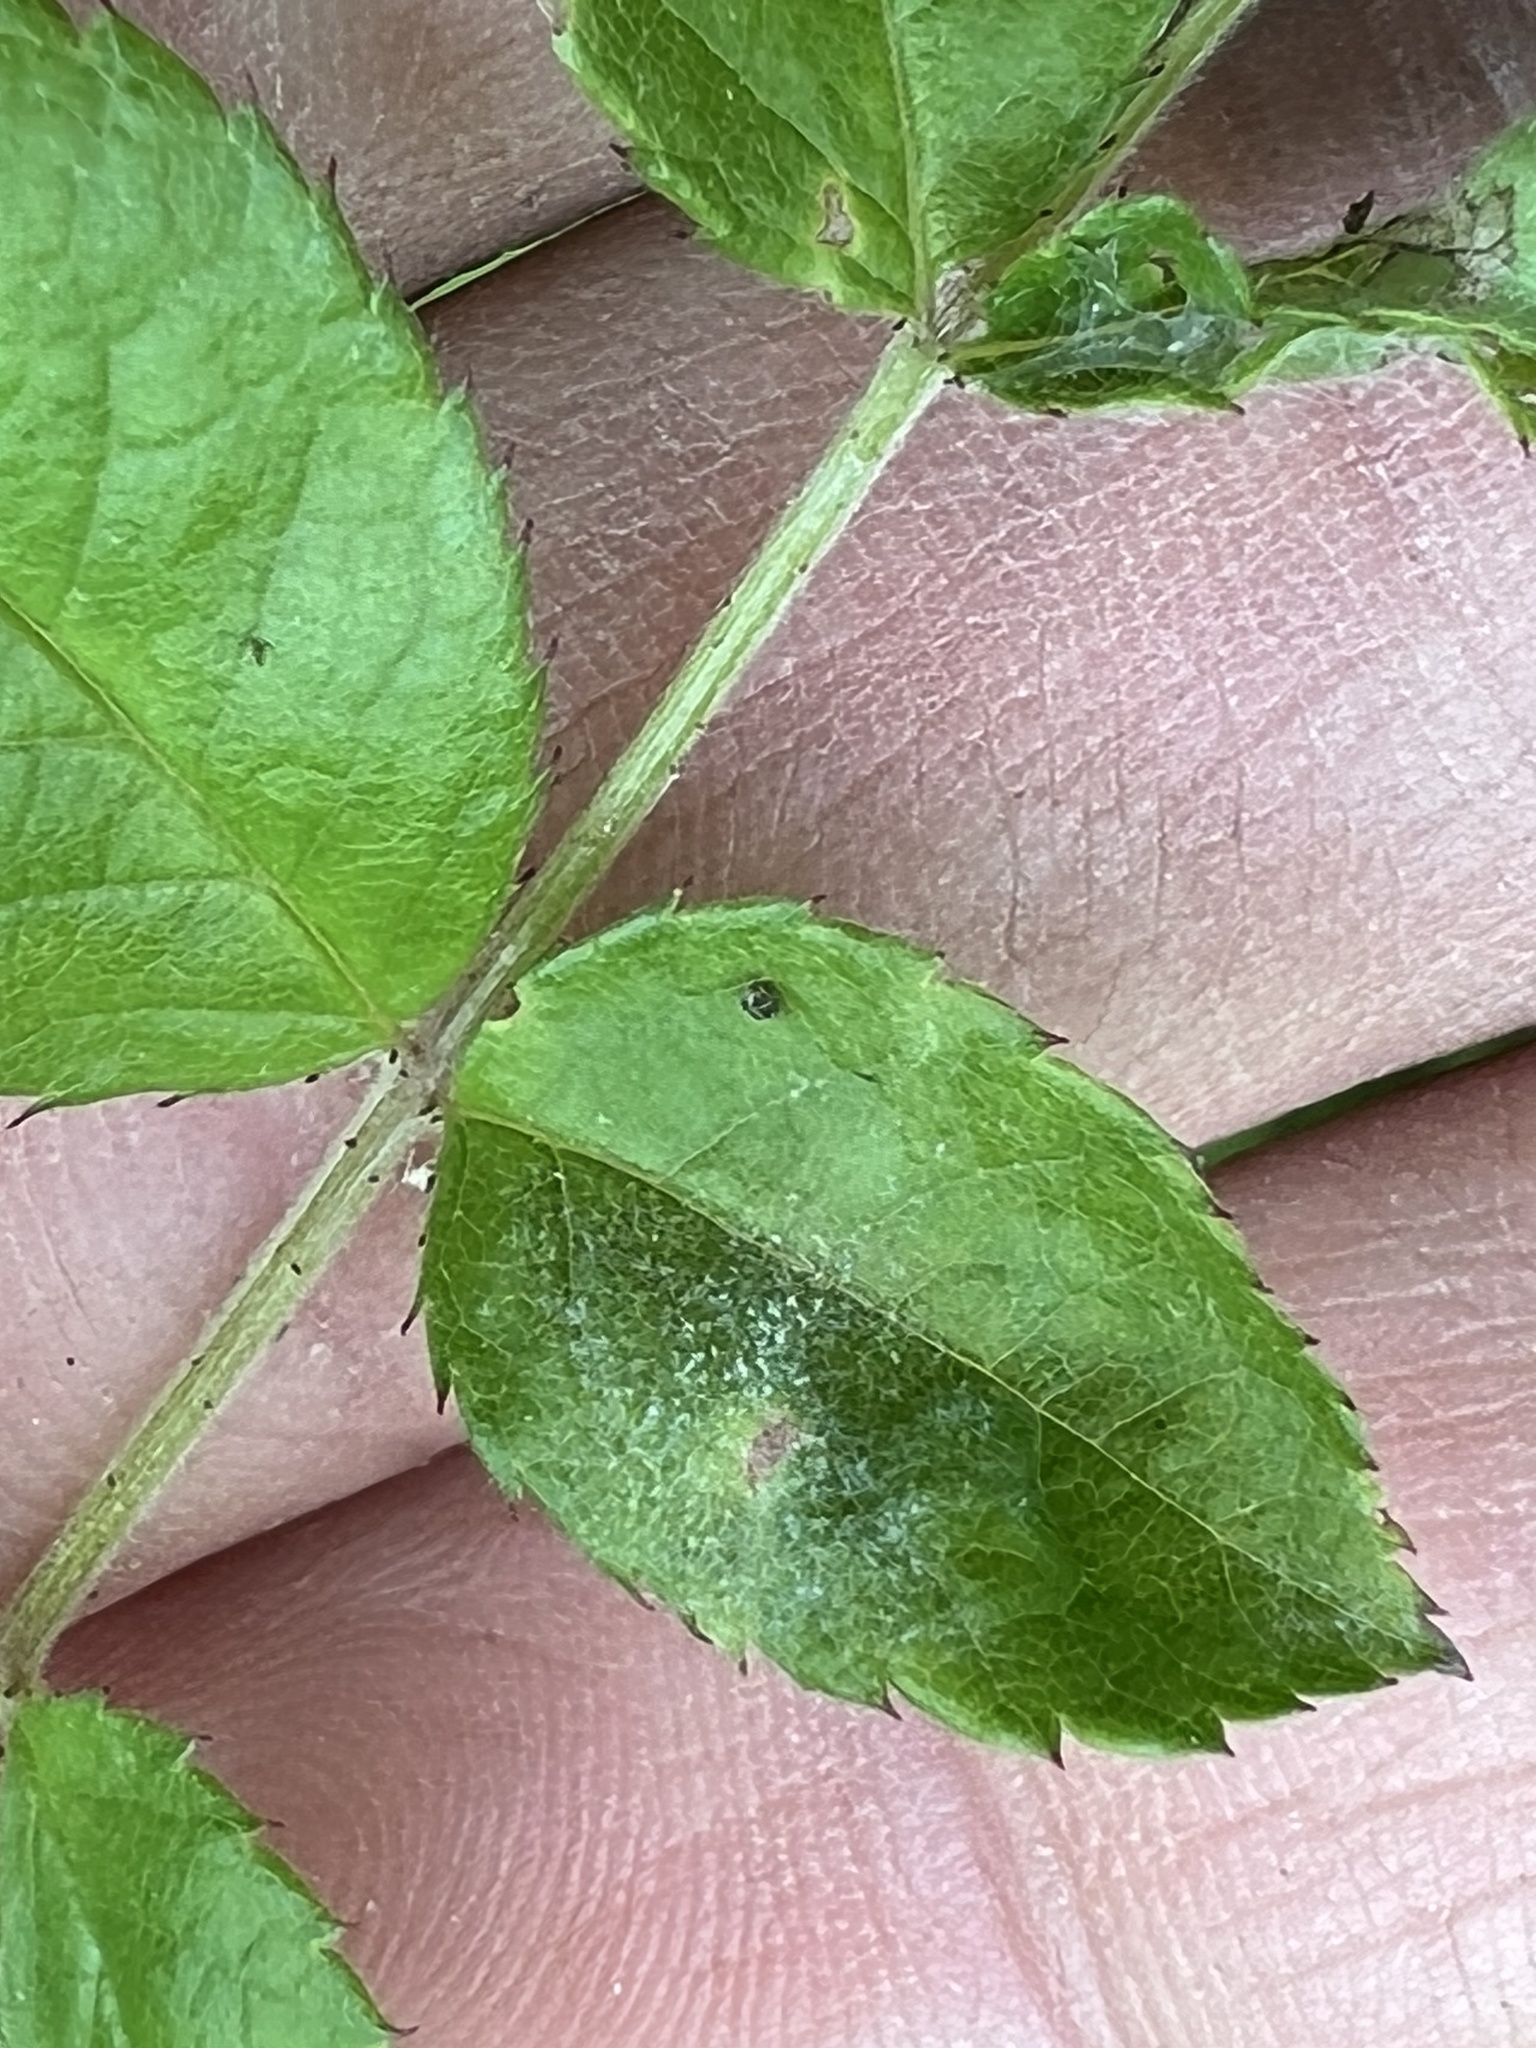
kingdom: Fungi
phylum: Ascomycota
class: Leotiomycetes
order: Helotiales
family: Erysiphaceae
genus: Podosphaera
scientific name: Podosphaera pannosa
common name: Rose mildew
